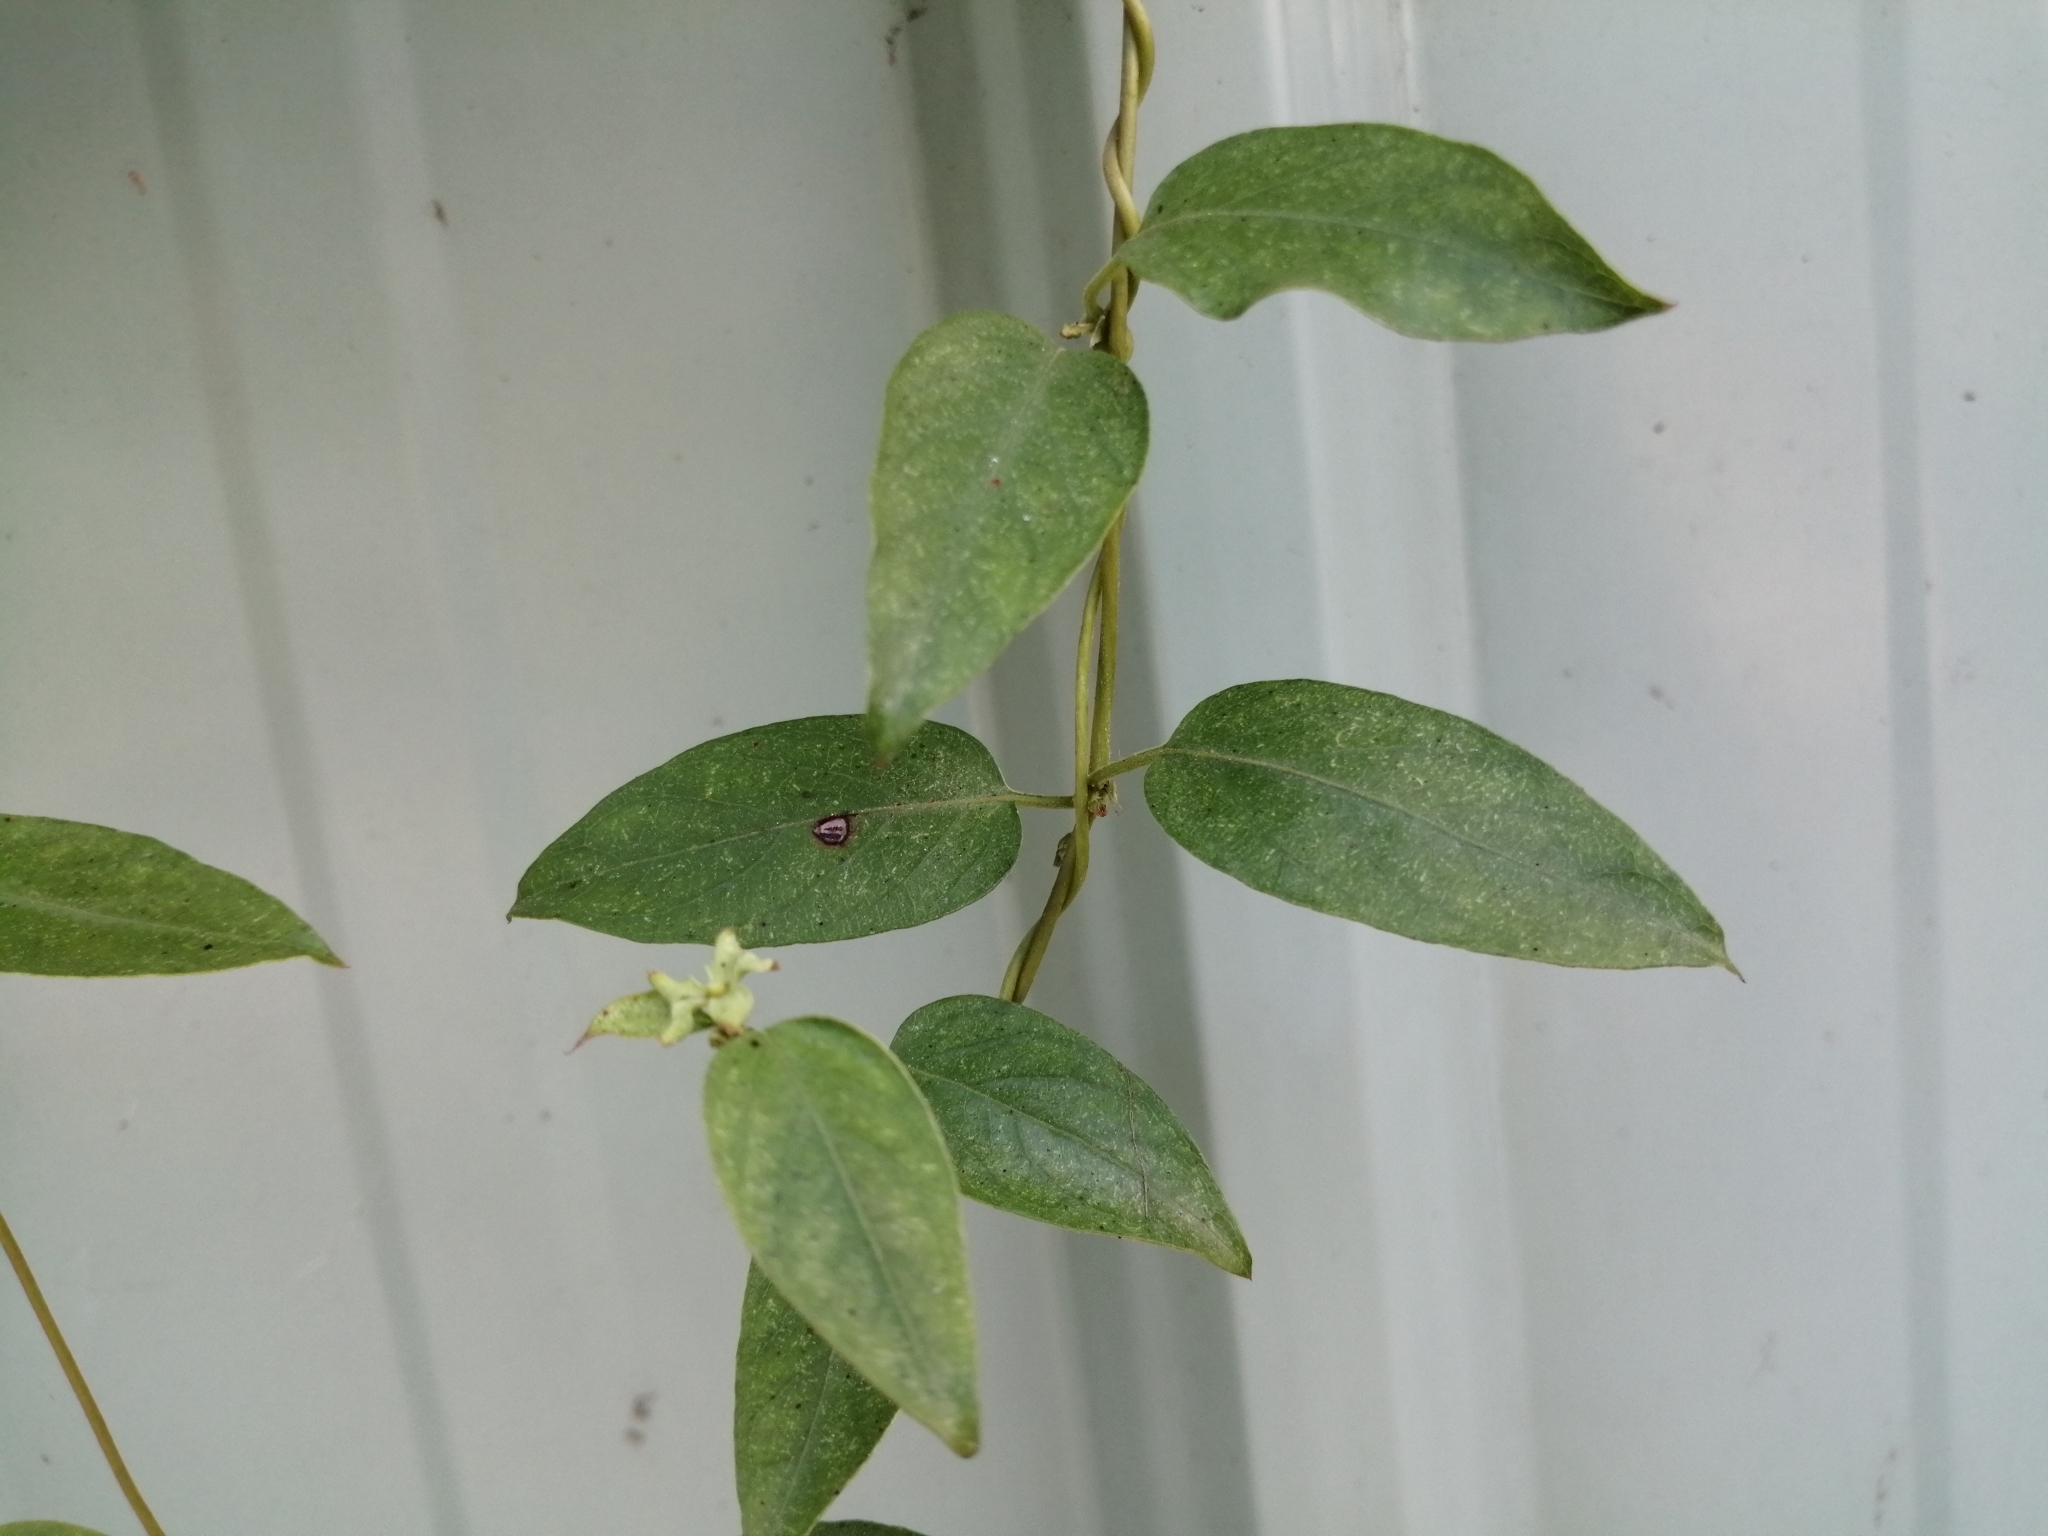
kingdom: Plantae
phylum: Tracheophyta
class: Magnoliopsida
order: Gentianales
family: Rubiaceae
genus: Paederia
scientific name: Paederia foetida
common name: Stinkvine
